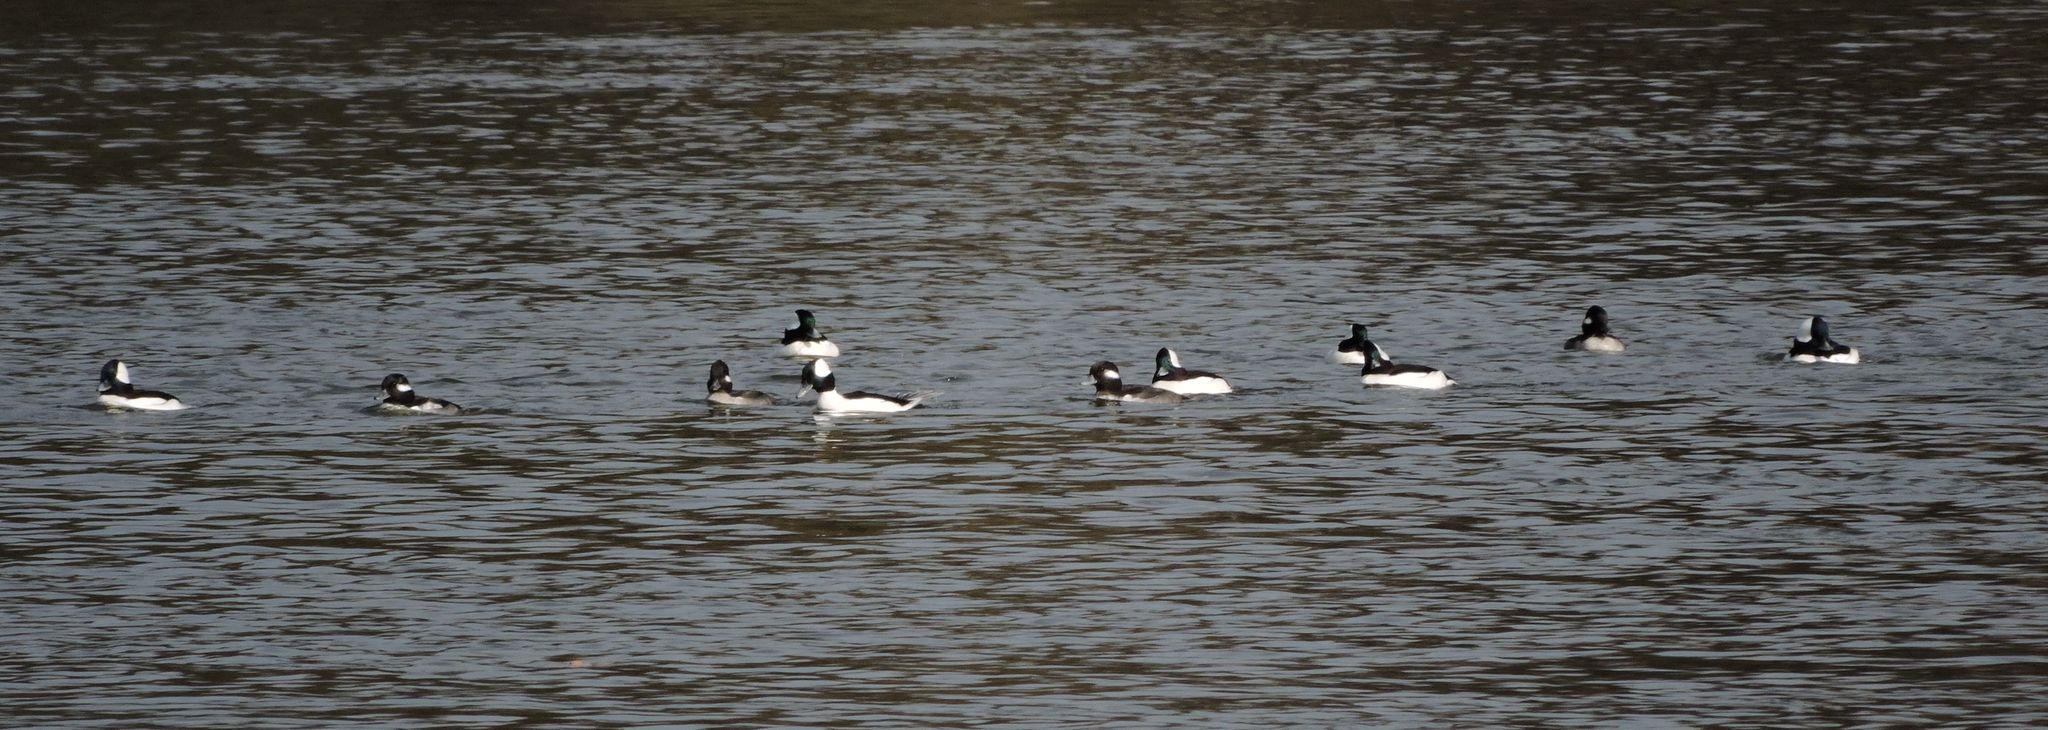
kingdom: Animalia
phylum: Chordata
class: Aves
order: Anseriformes
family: Anatidae
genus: Bucephala
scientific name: Bucephala albeola
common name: Bufflehead
